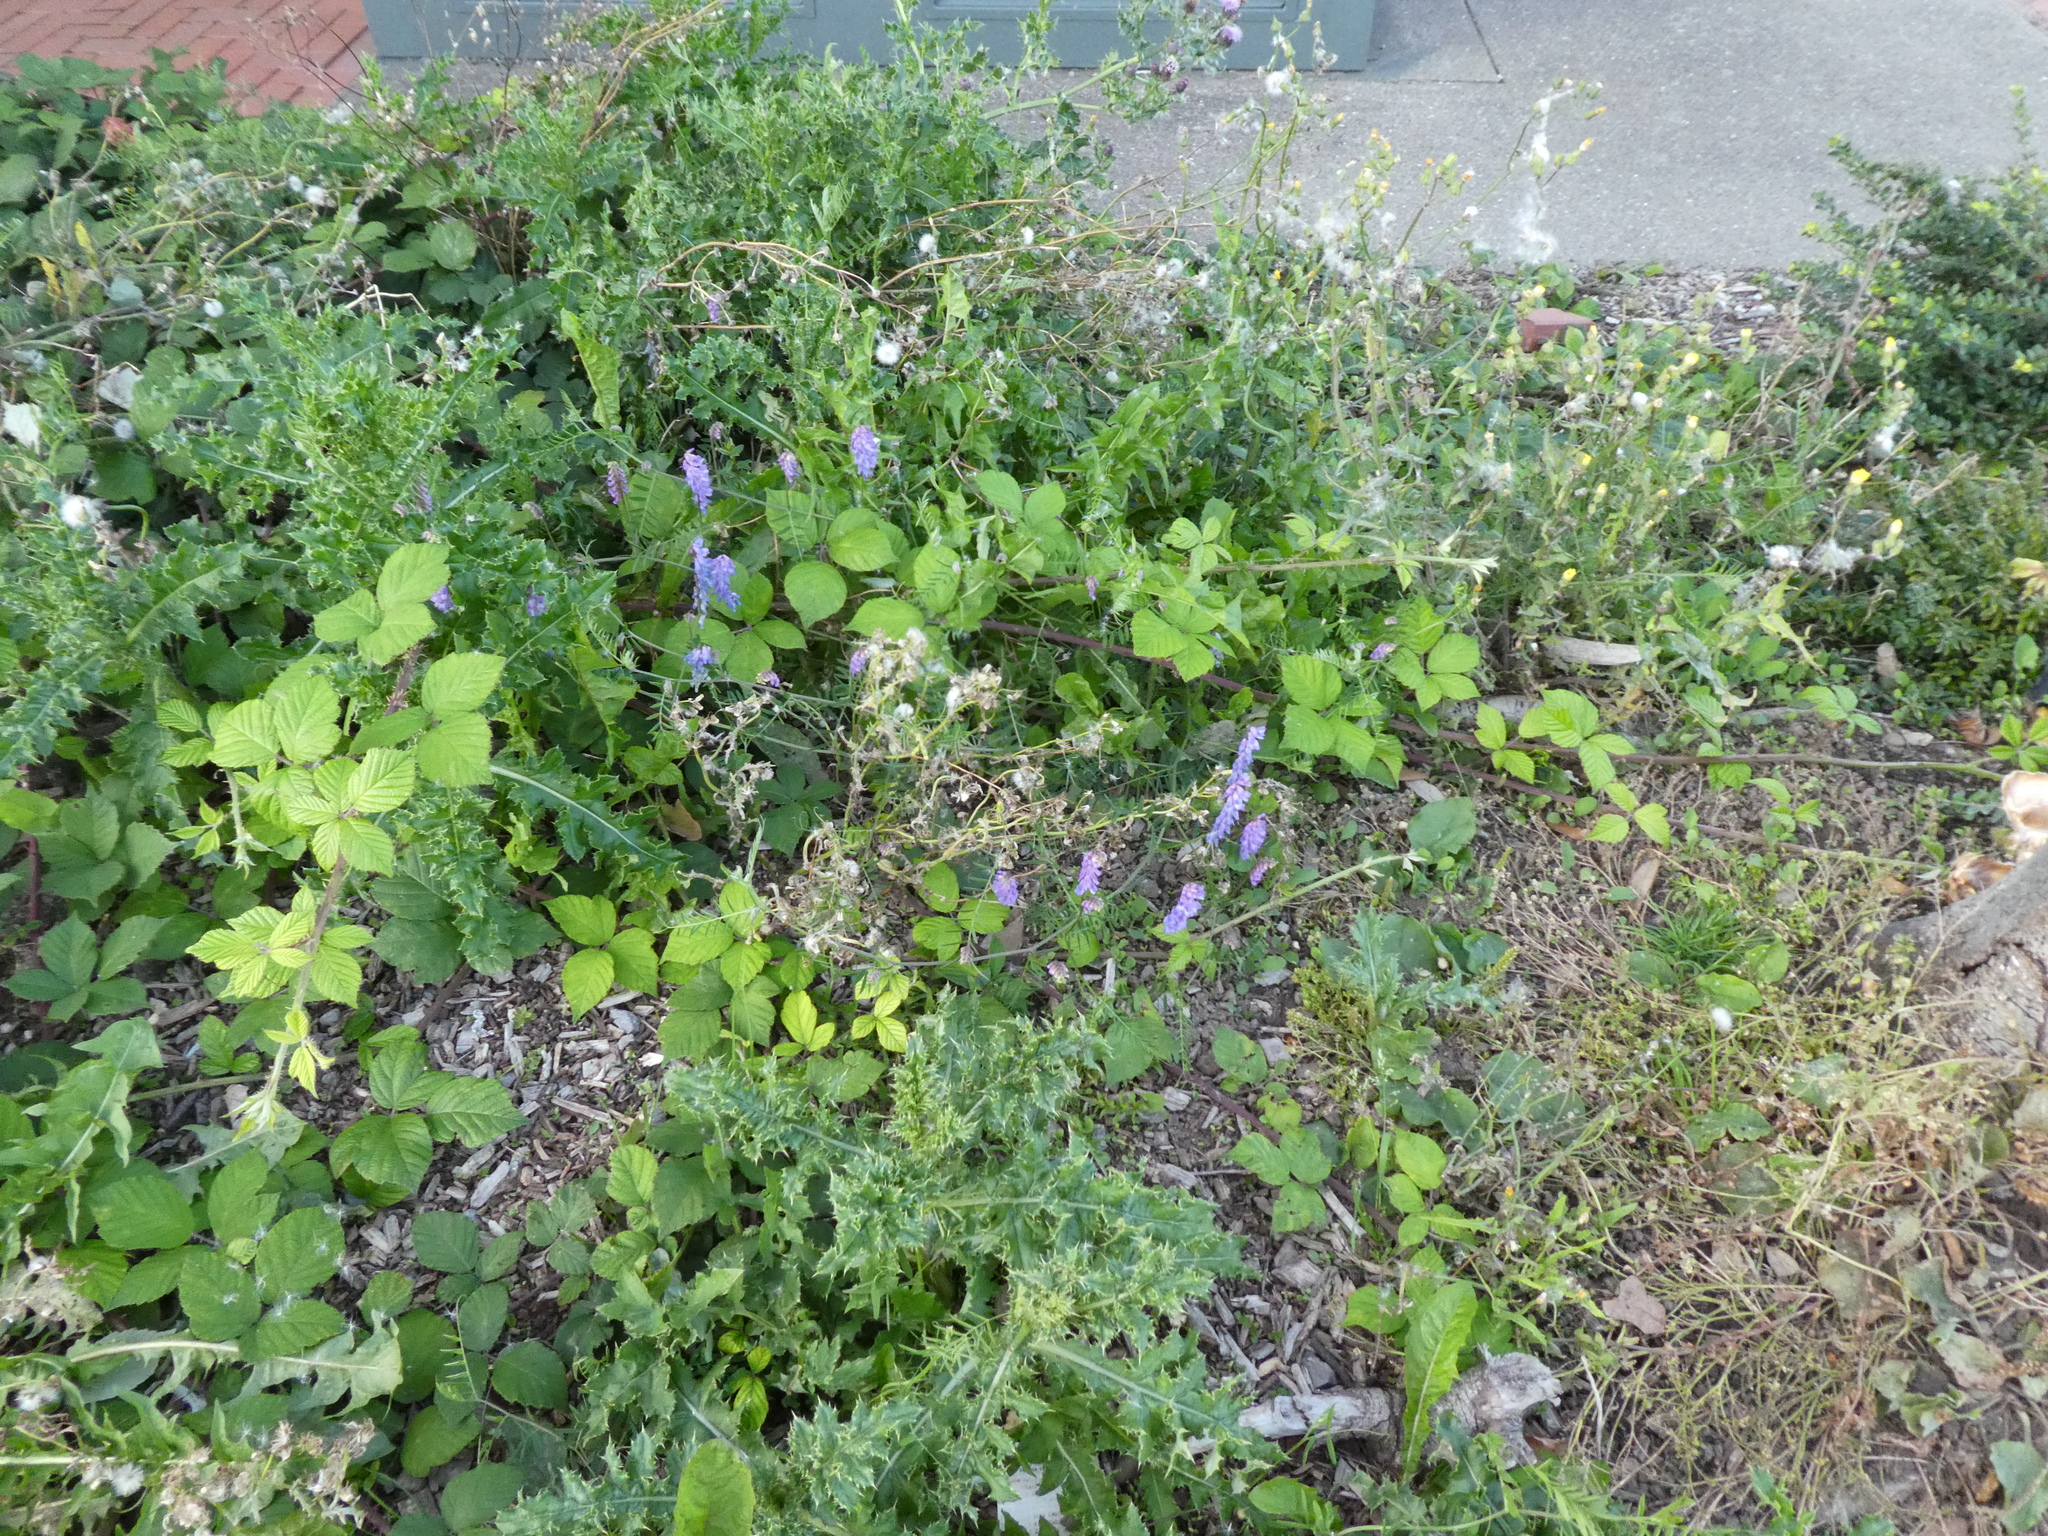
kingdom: Plantae
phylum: Tracheophyta
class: Magnoliopsida
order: Fabales
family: Fabaceae
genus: Vicia
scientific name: Vicia cracca
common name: Bird vetch
